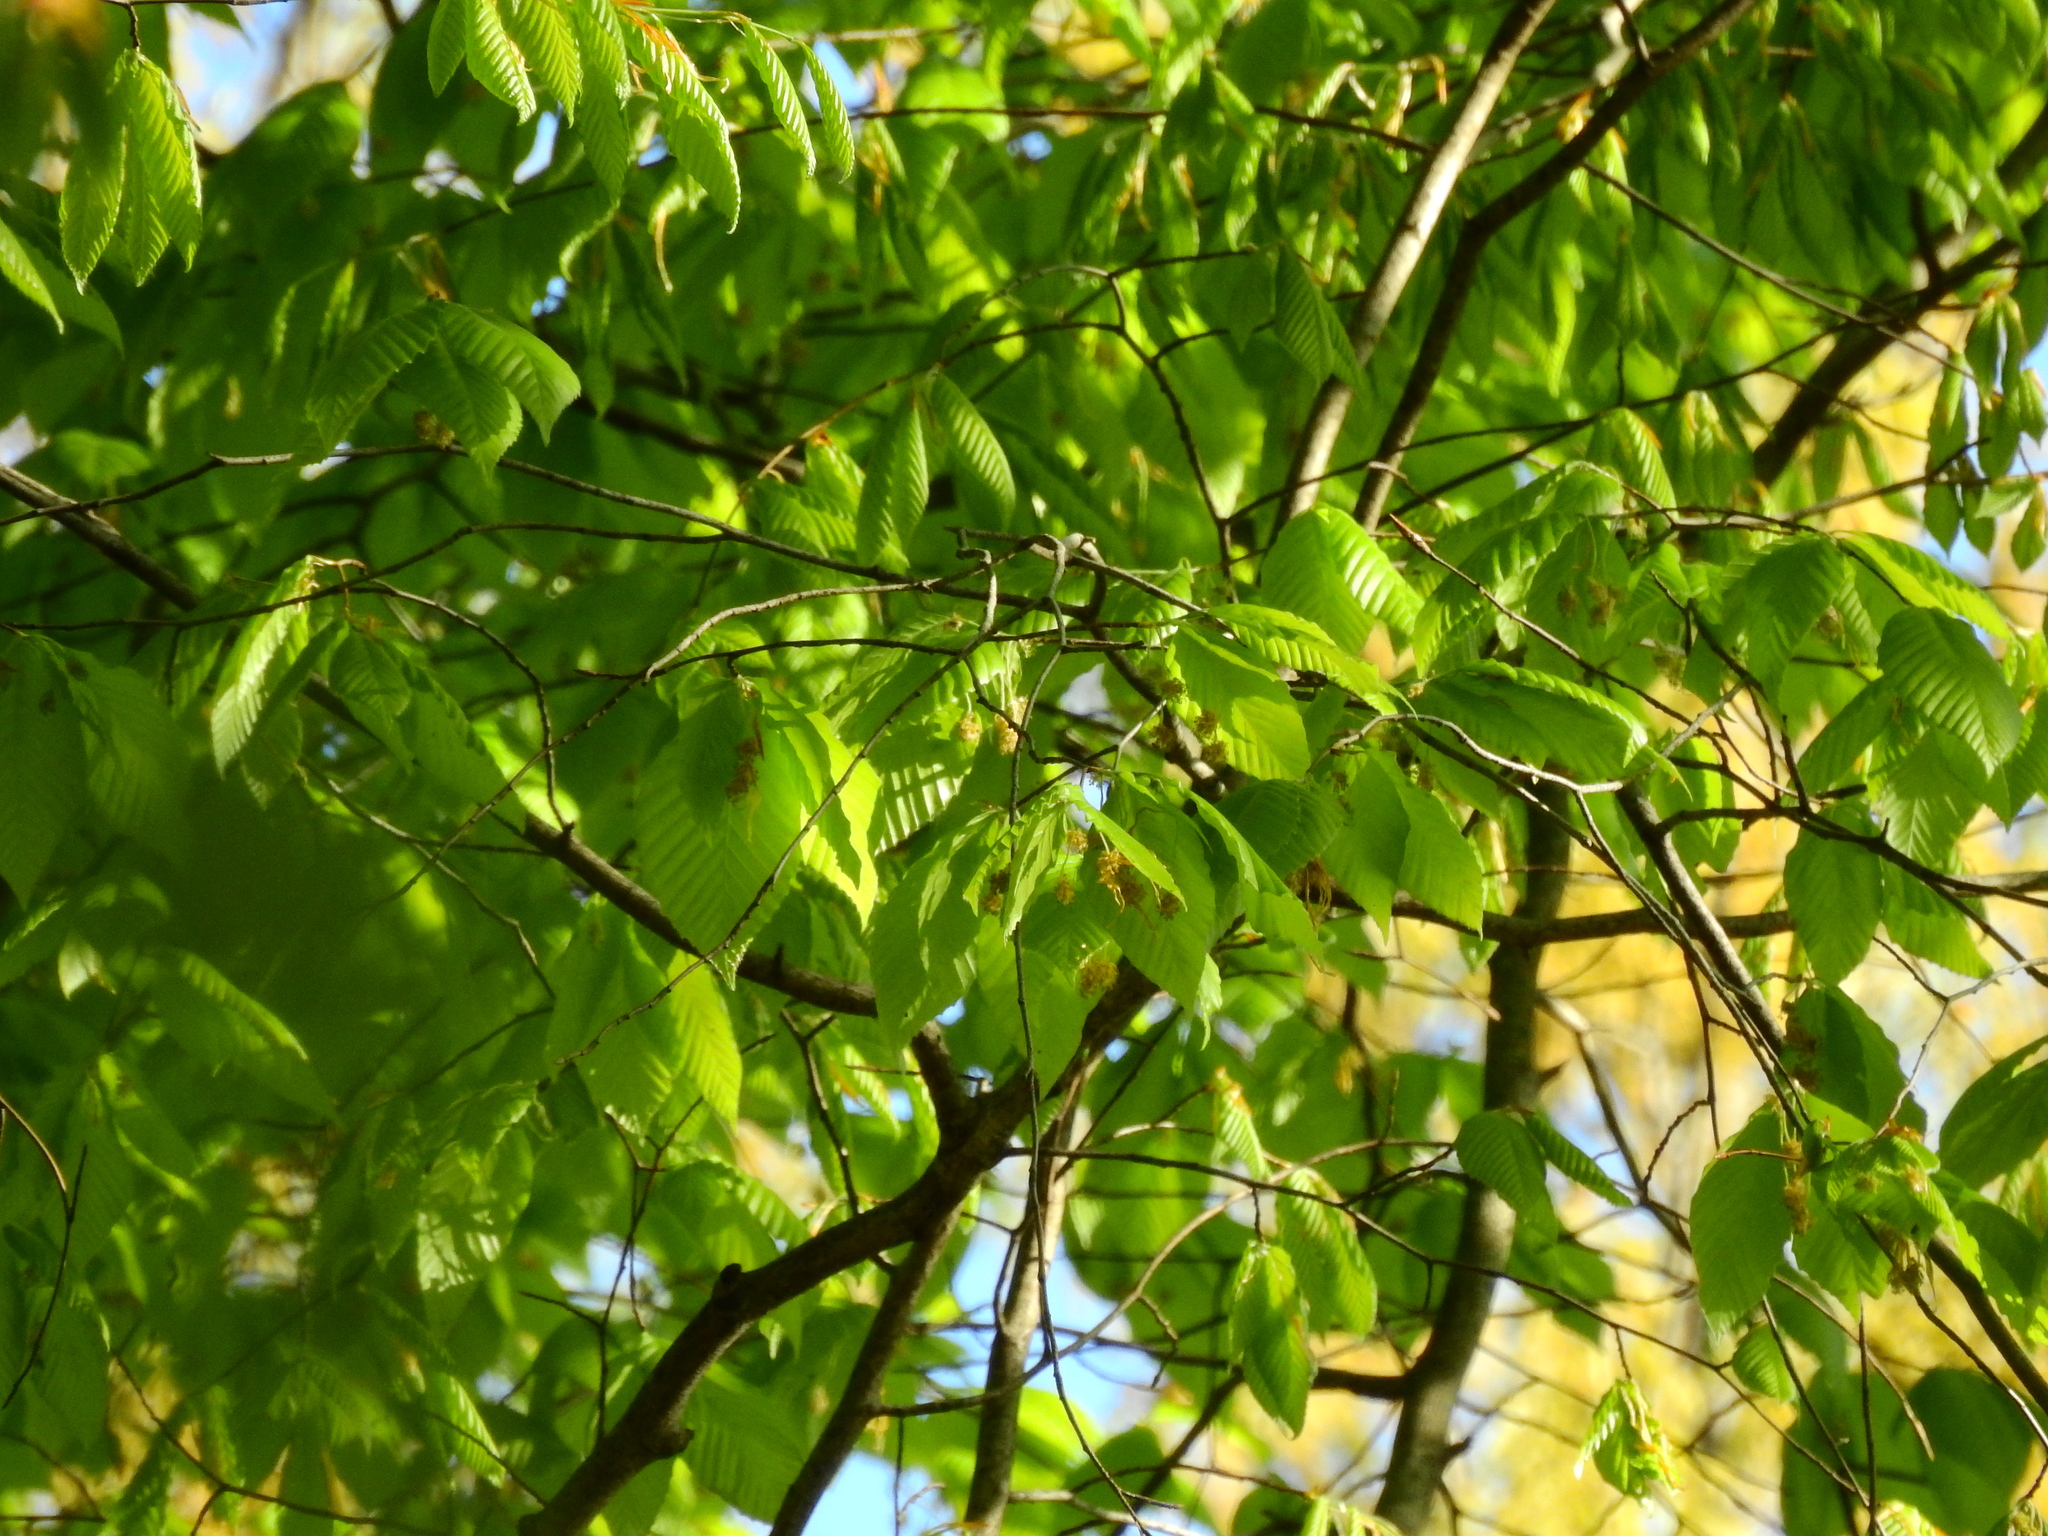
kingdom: Plantae
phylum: Tracheophyta
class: Magnoliopsida
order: Fagales
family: Fagaceae
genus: Fagus
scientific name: Fagus grandifolia
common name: American beech
